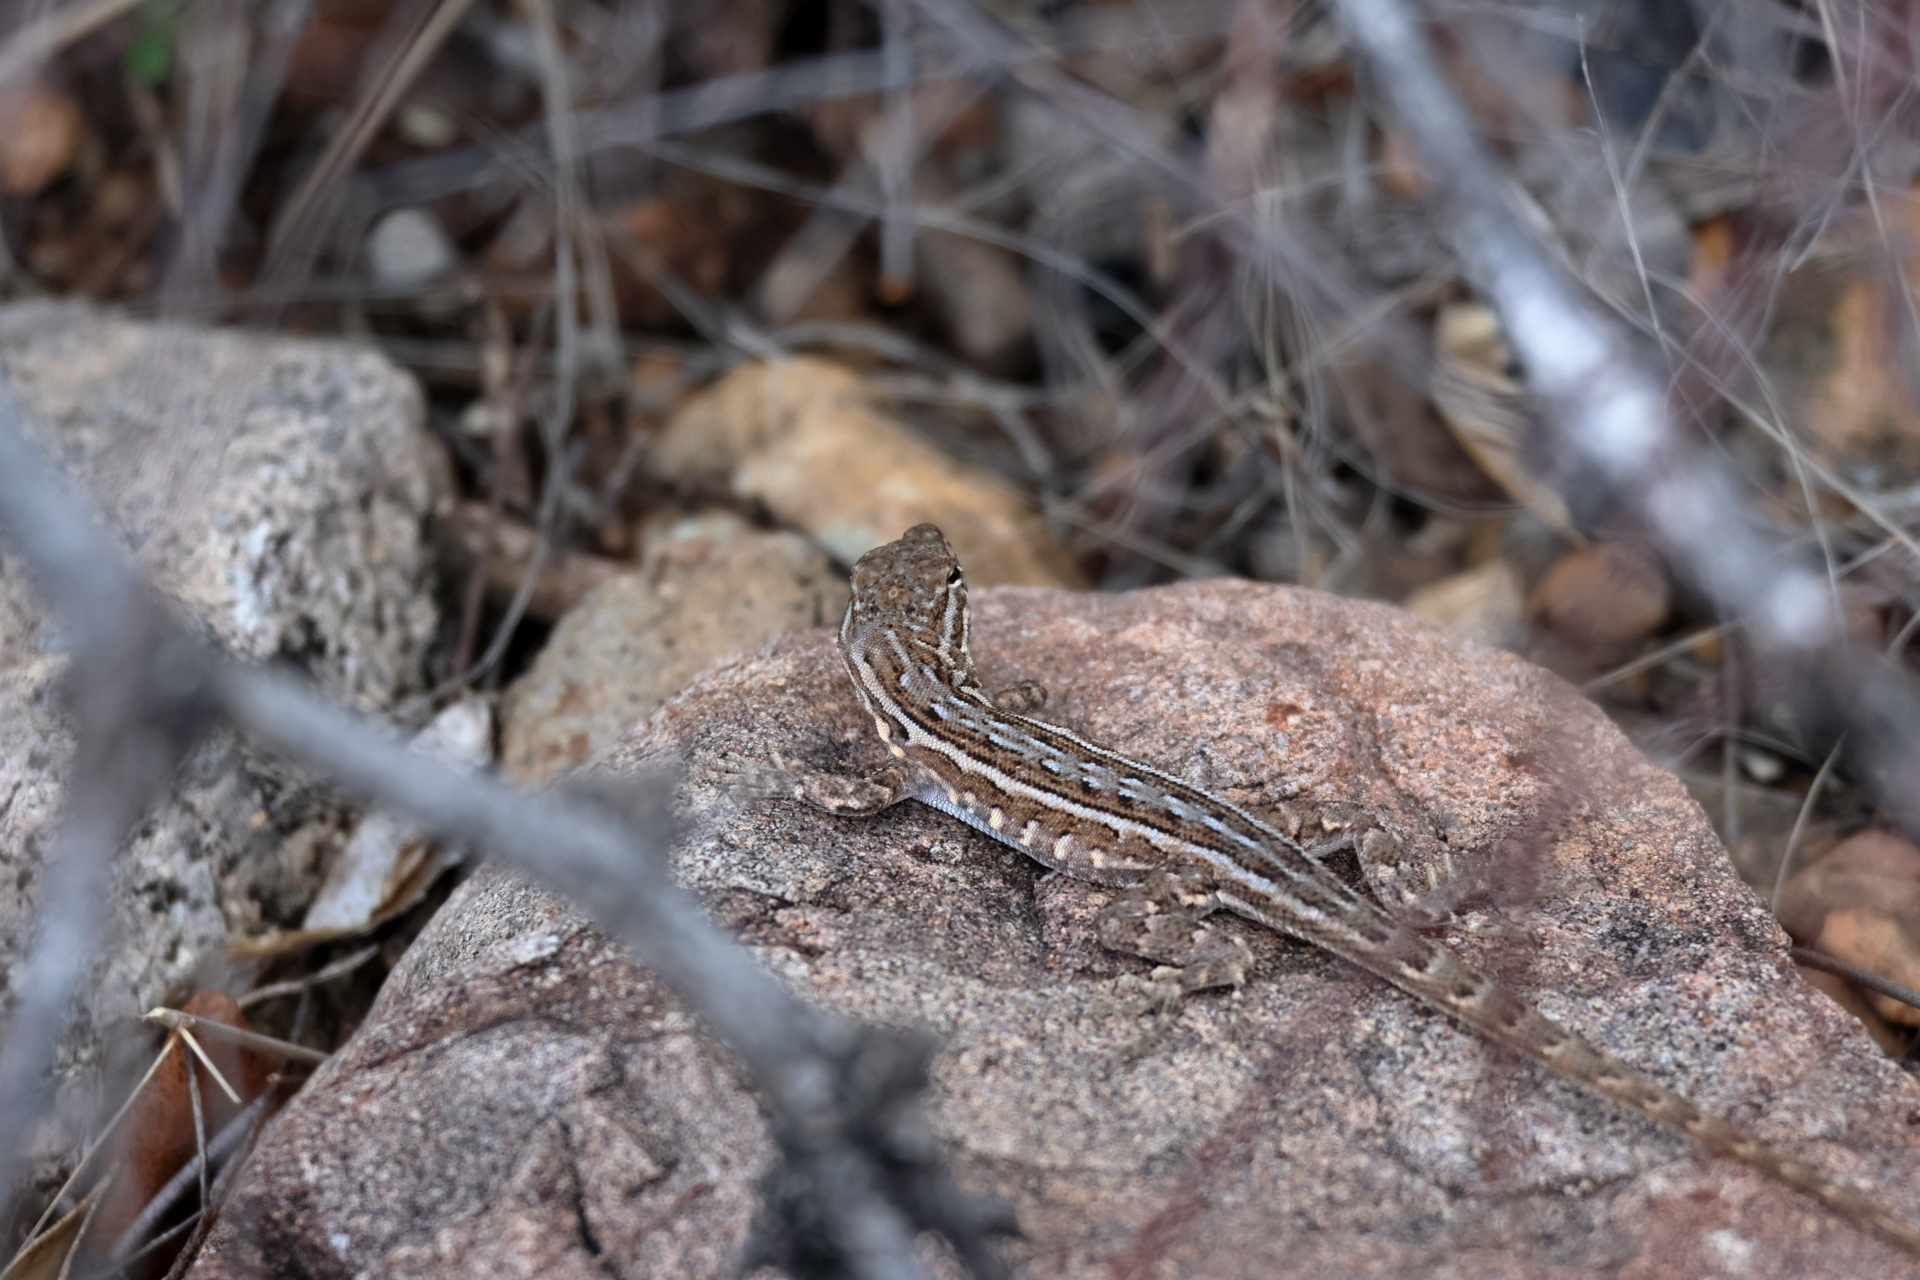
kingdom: Animalia
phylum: Chordata
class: Squamata
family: Phrynosomatidae
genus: Uta
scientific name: Uta stansburiana
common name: Side-blotched lizard
